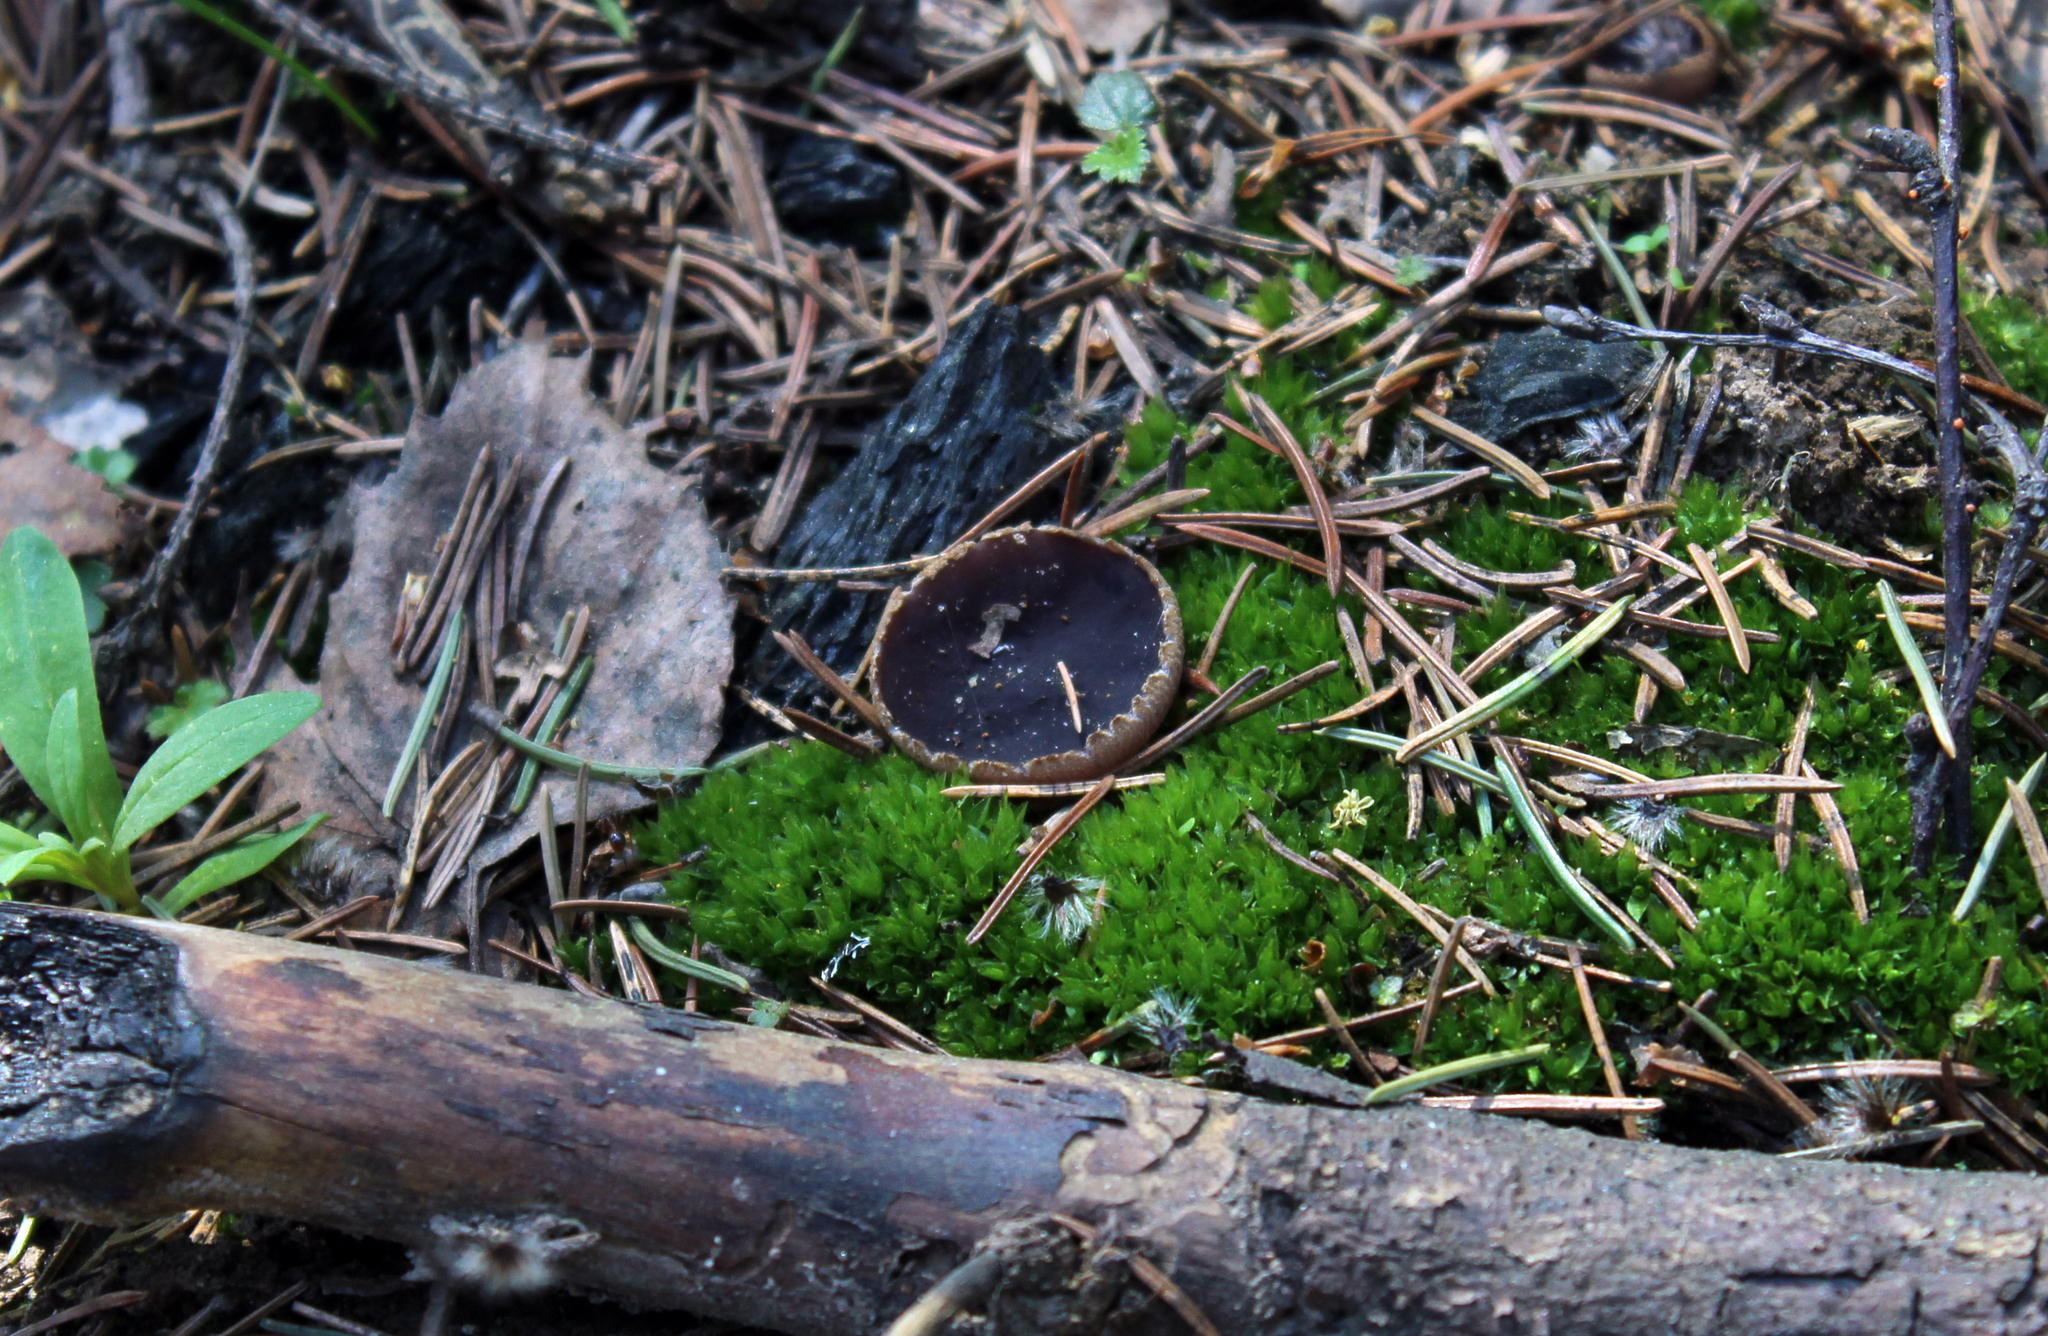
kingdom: Fungi
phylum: Ascomycota
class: Pezizomycetes
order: Pezizales
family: Pezizaceae
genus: Geoscypha
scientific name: Geoscypha violacea
